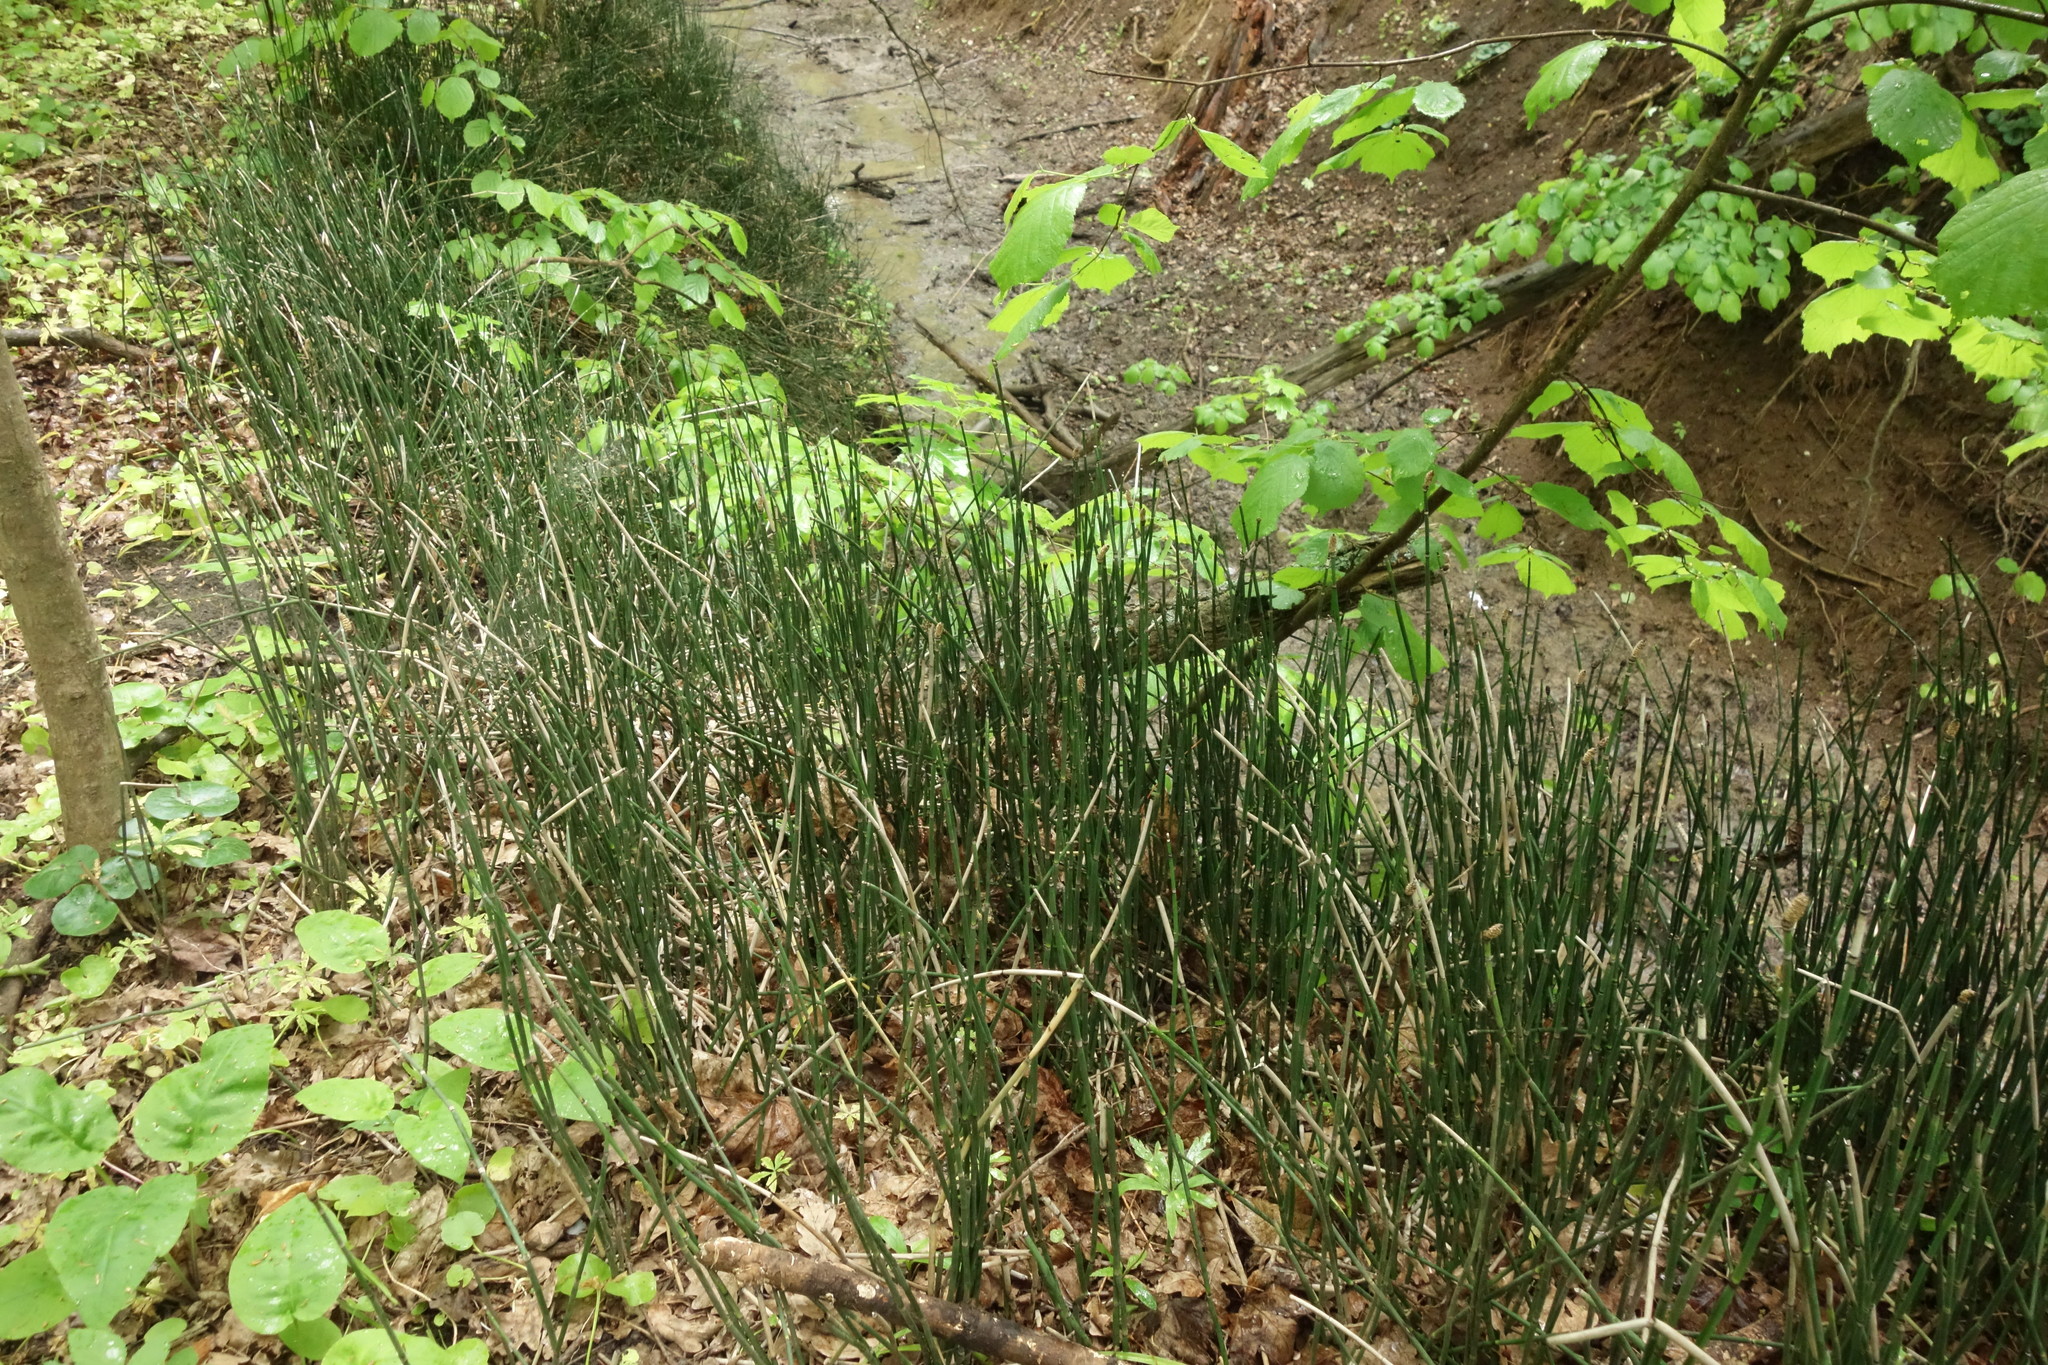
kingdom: Plantae
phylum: Tracheophyta
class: Polypodiopsida
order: Equisetales
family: Equisetaceae
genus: Equisetum
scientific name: Equisetum hyemale
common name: Rough horsetail
